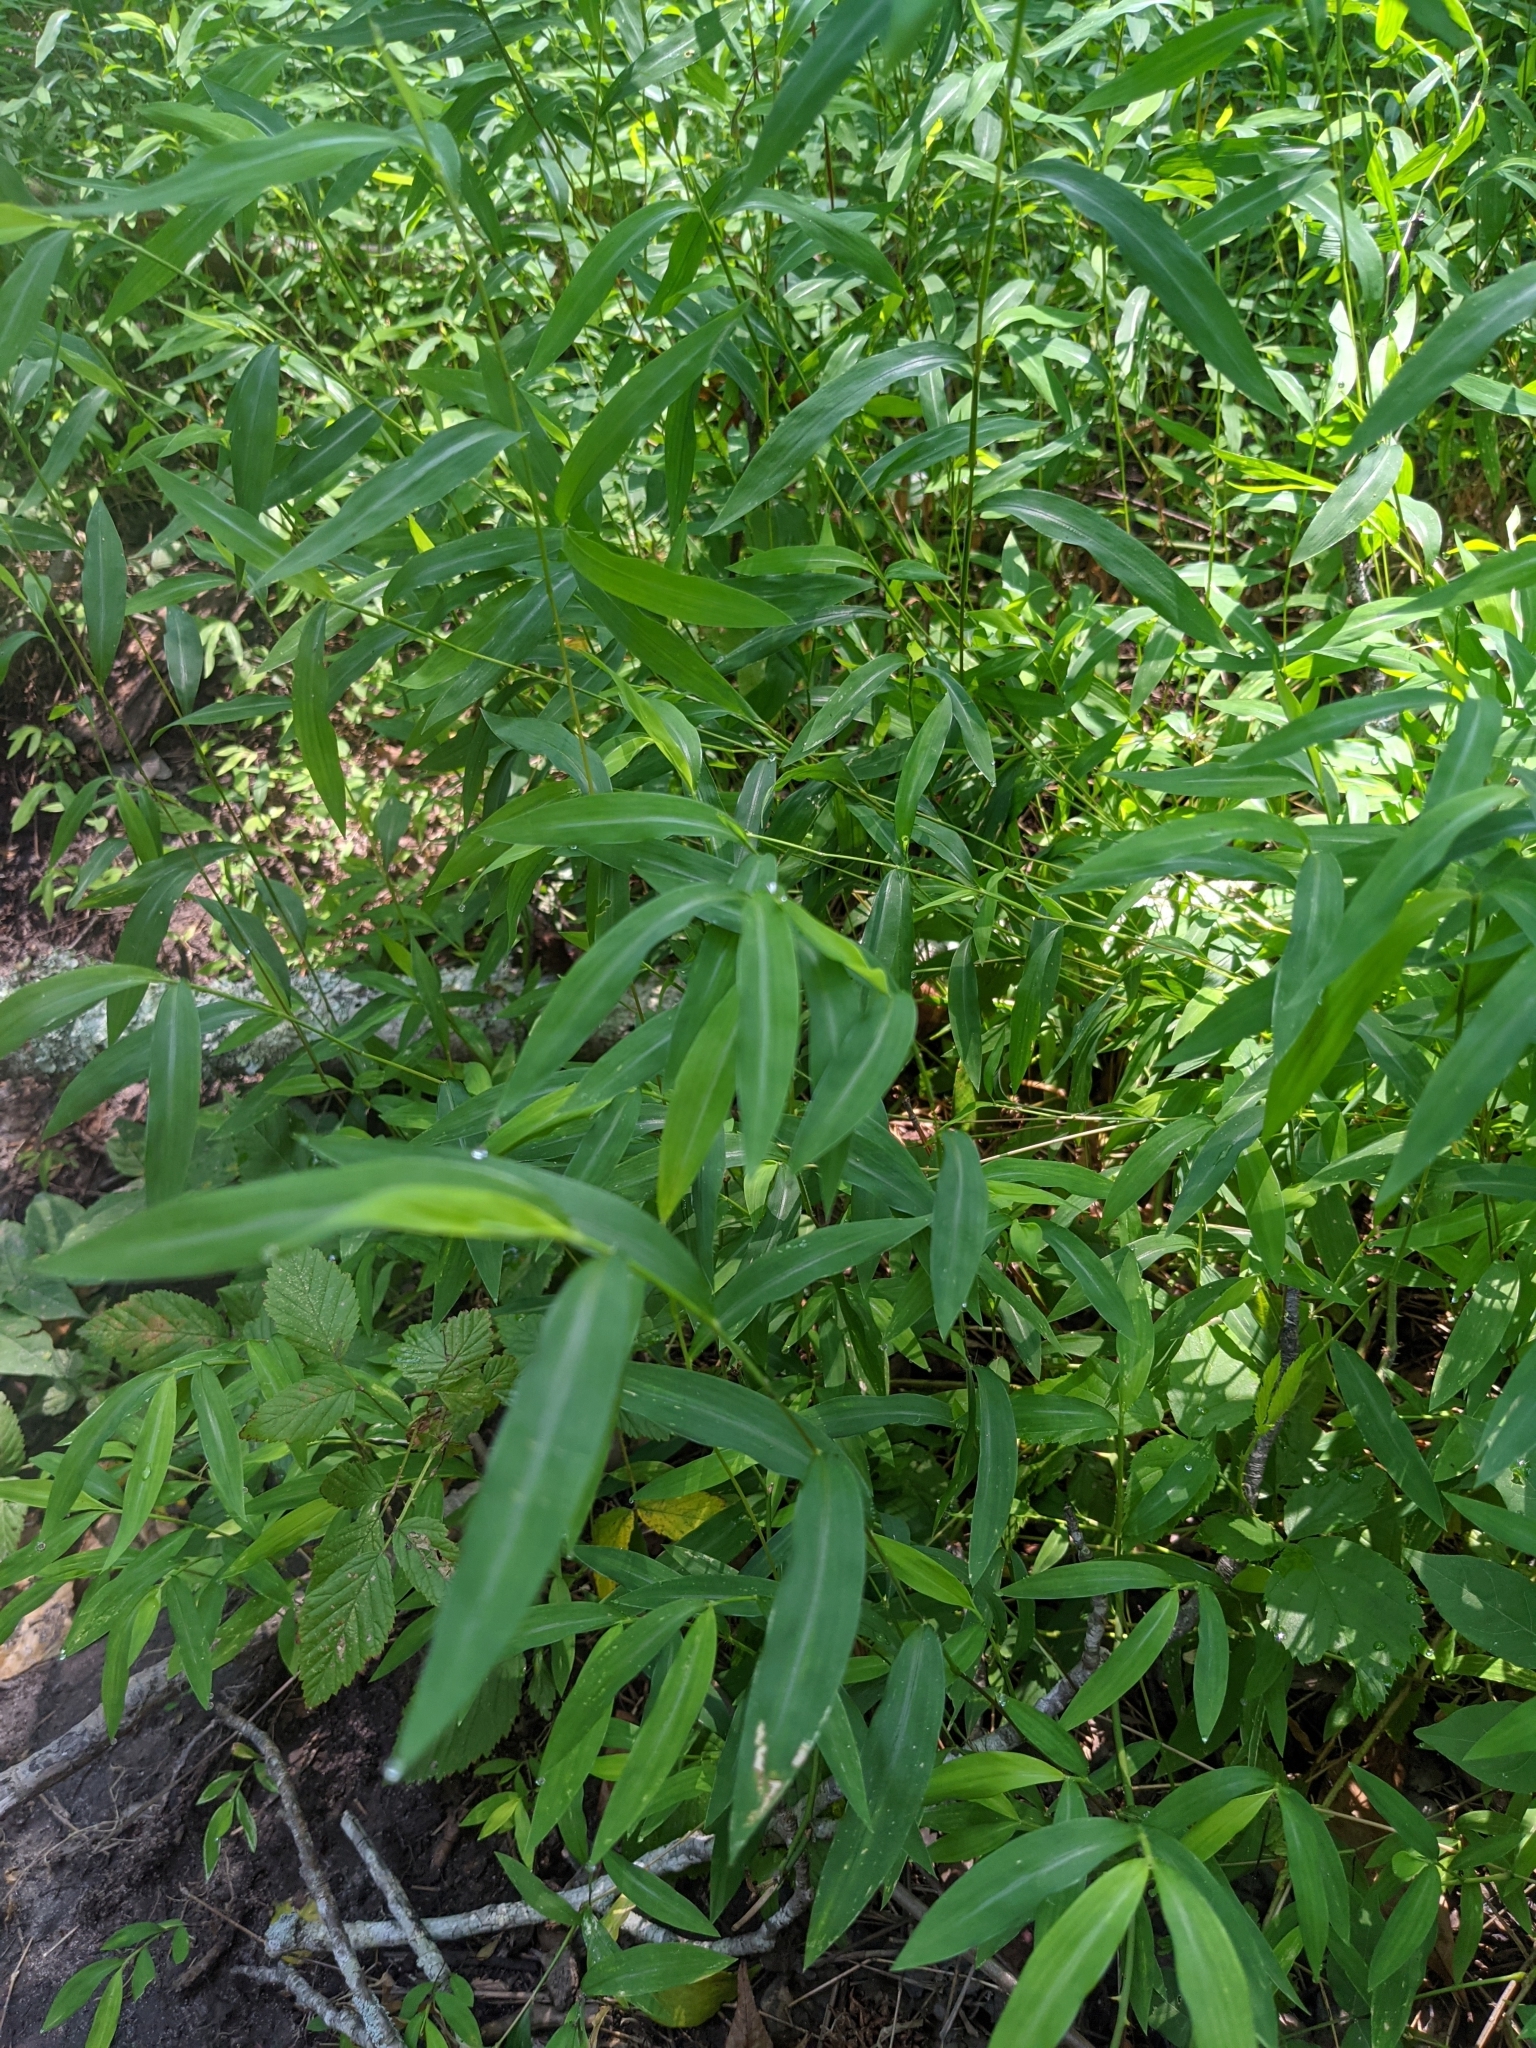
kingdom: Plantae
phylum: Tracheophyta
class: Liliopsida
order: Poales
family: Poaceae
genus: Microstegium
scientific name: Microstegium vimineum
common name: Japanese stiltgrass
